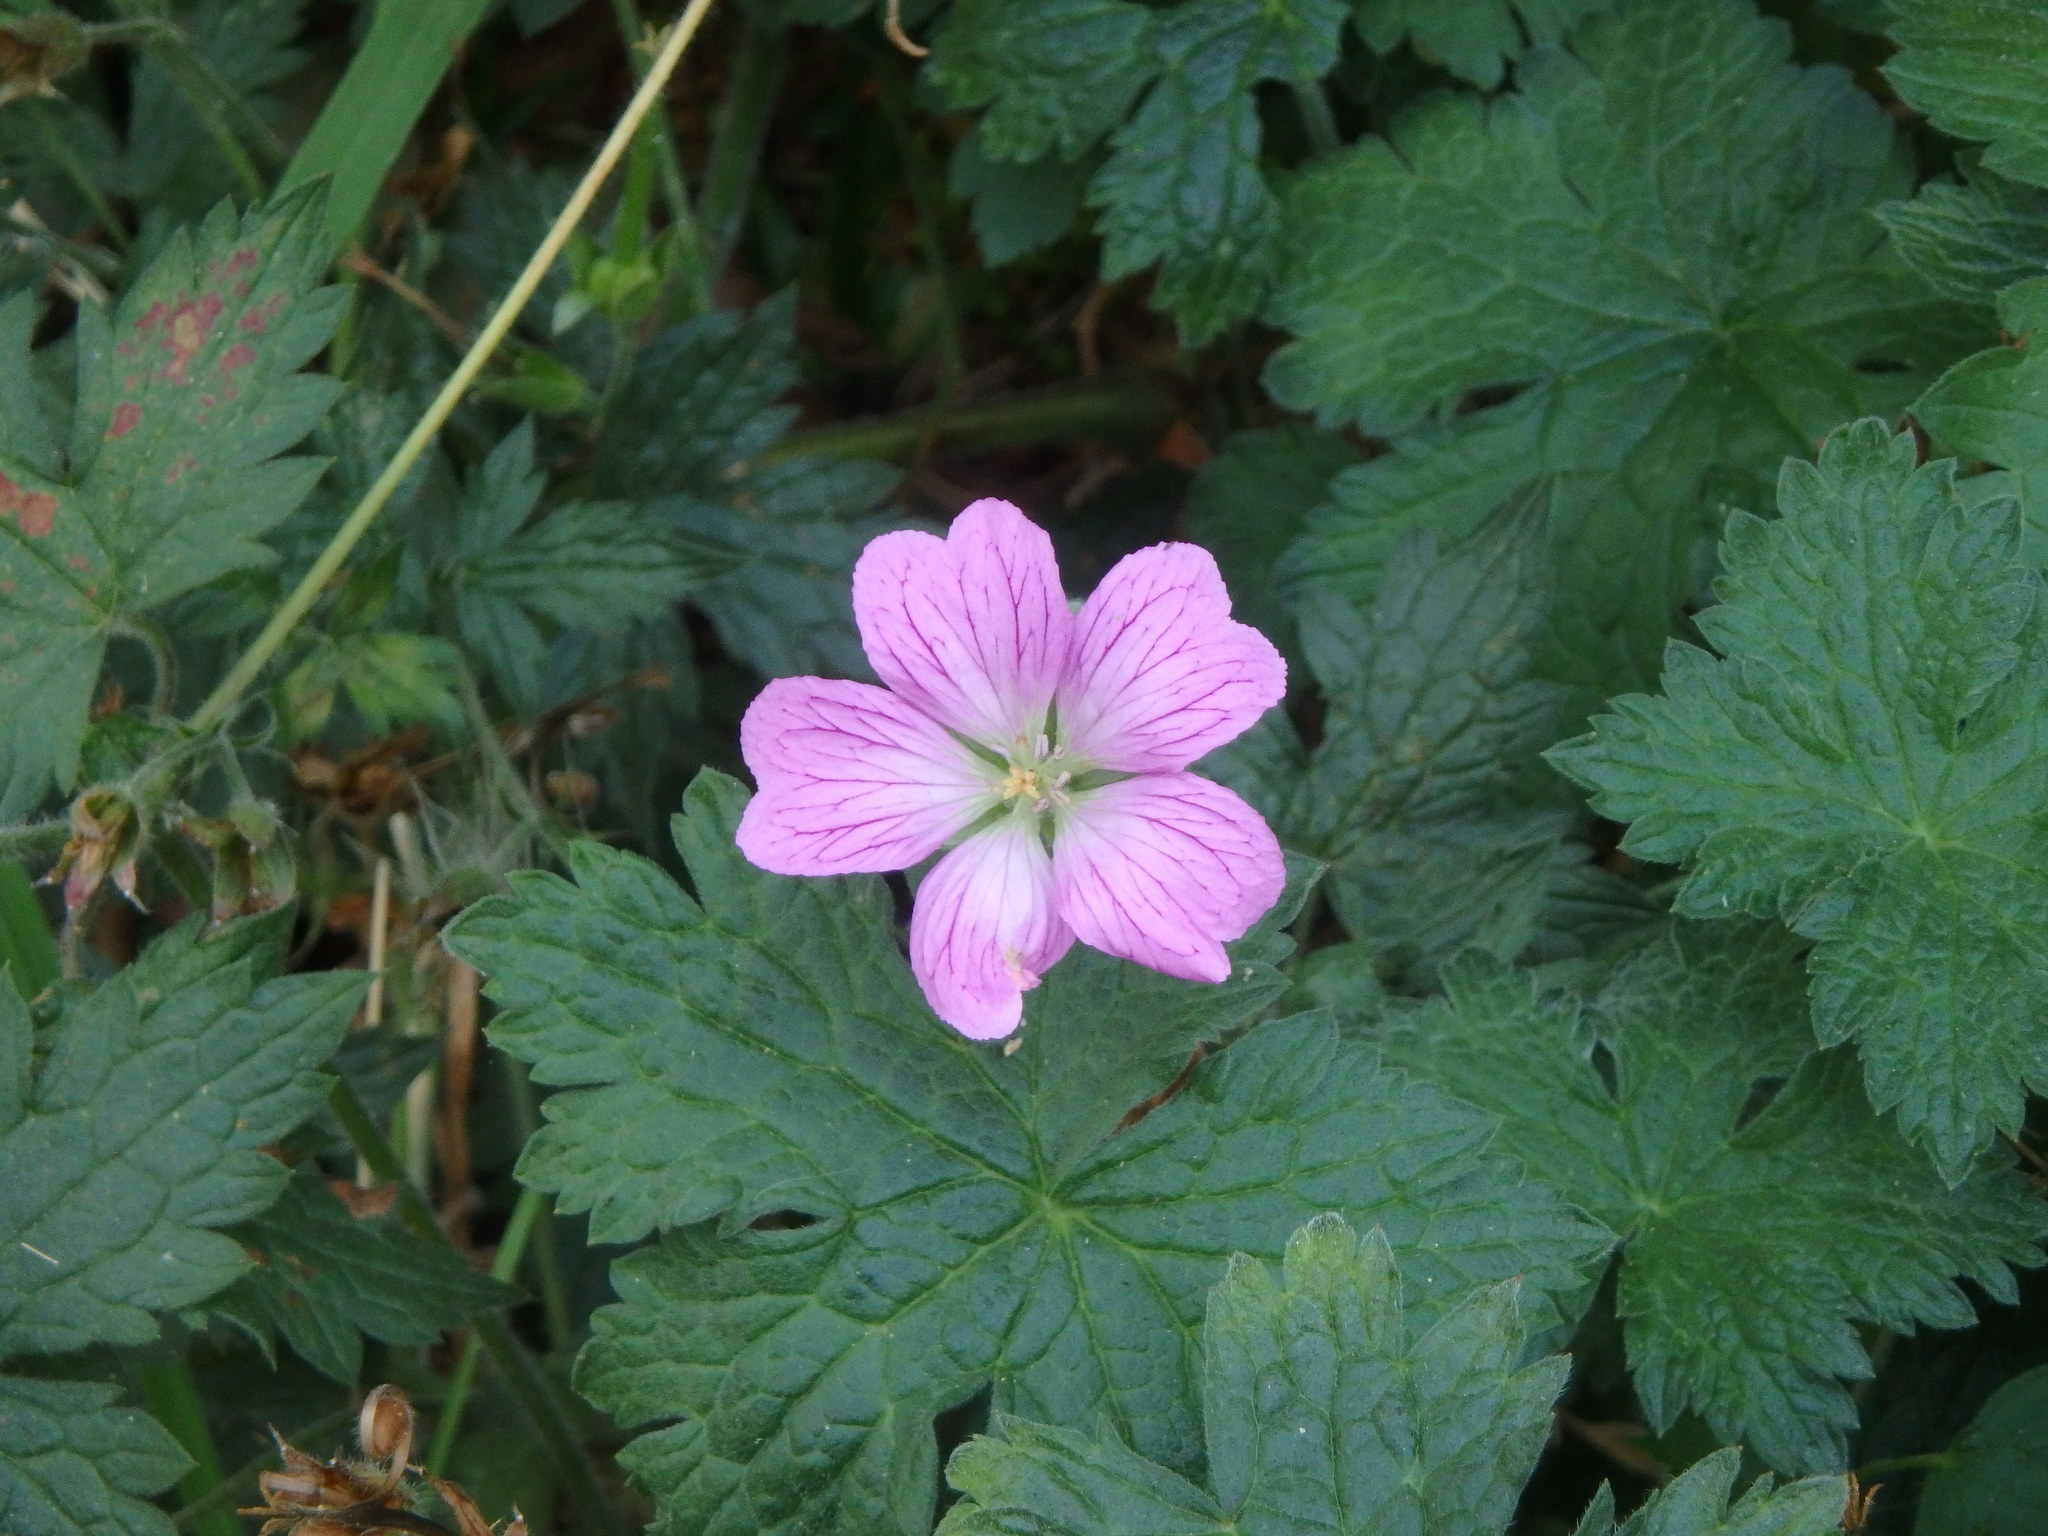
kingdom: Plantae
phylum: Tracheophyta
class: Magnoliopsida
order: Geraniales
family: Geraniaceae
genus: Geranium
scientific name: Geranium oxonianum
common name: Druce's crane's-bill
